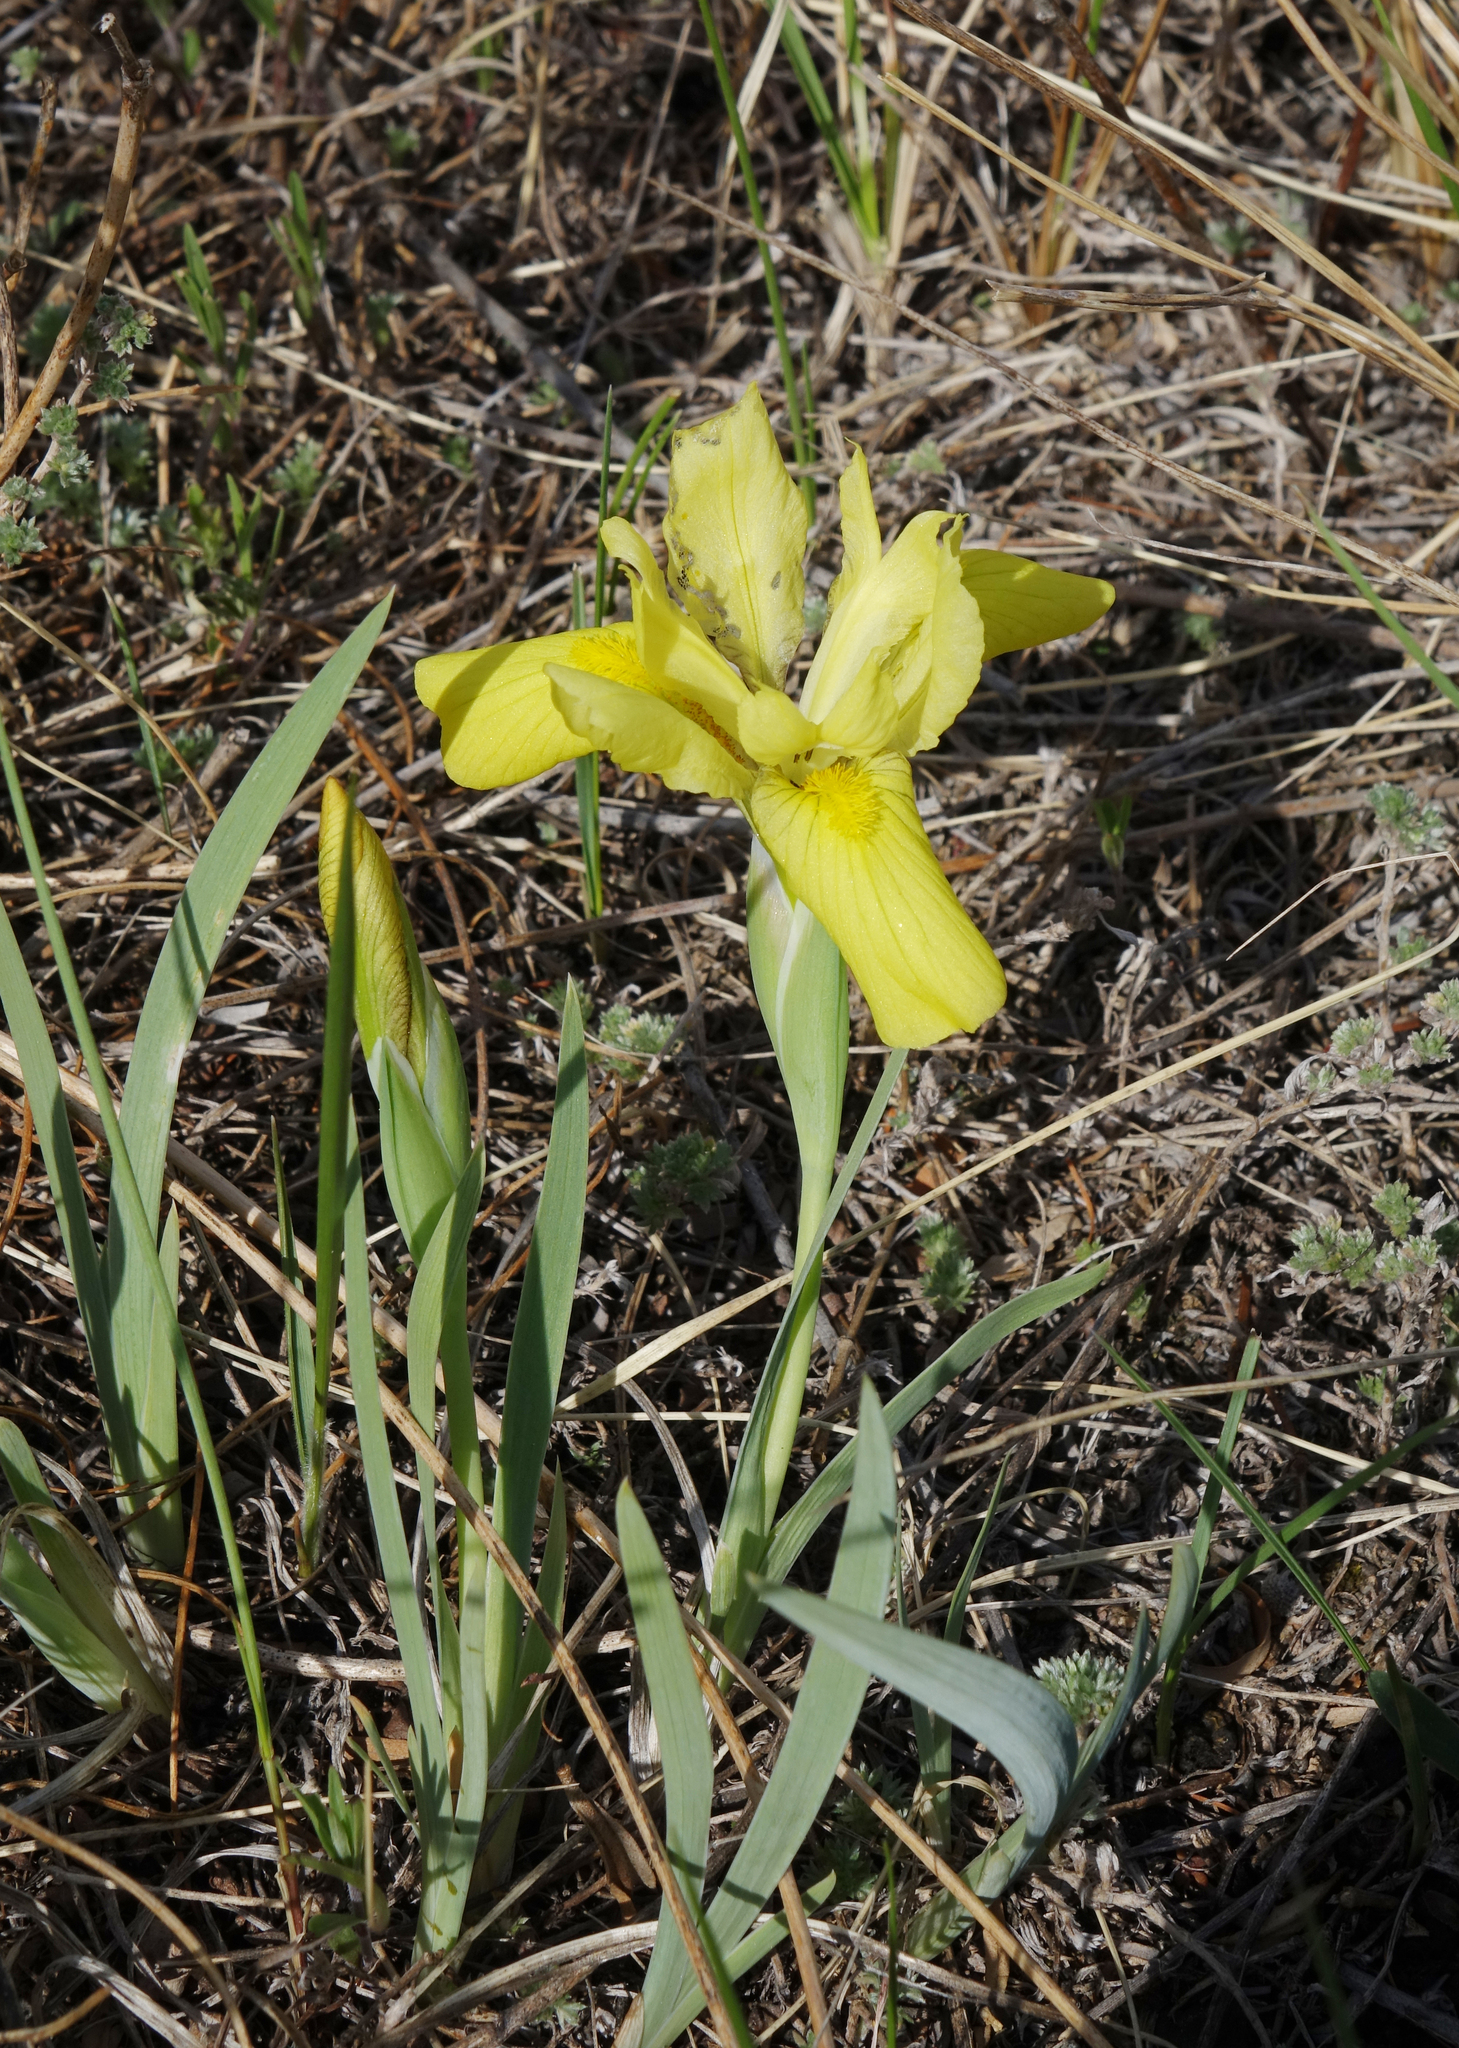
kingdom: Plantae
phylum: Tracheophyta
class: Liliopsida
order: Asparagales
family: Iridaceae
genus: Iris
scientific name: Iris humilis
